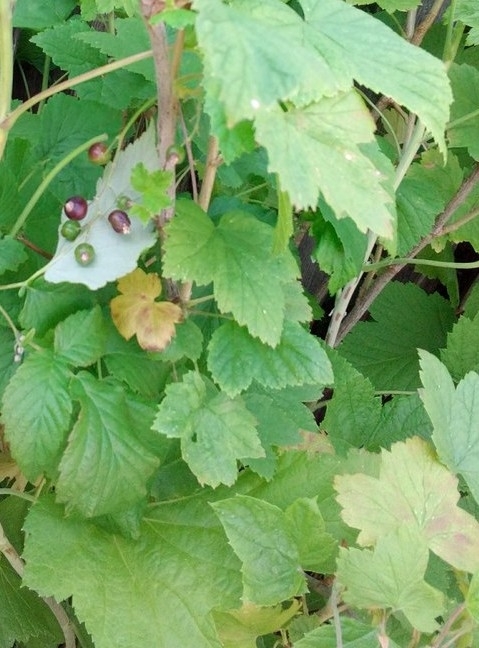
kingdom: Plantae
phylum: Tracheophyta
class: Magnoliopsida
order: Saxifragales
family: Grossulariaceae
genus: Ribes
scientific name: Ribes nigrum
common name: Black currant
